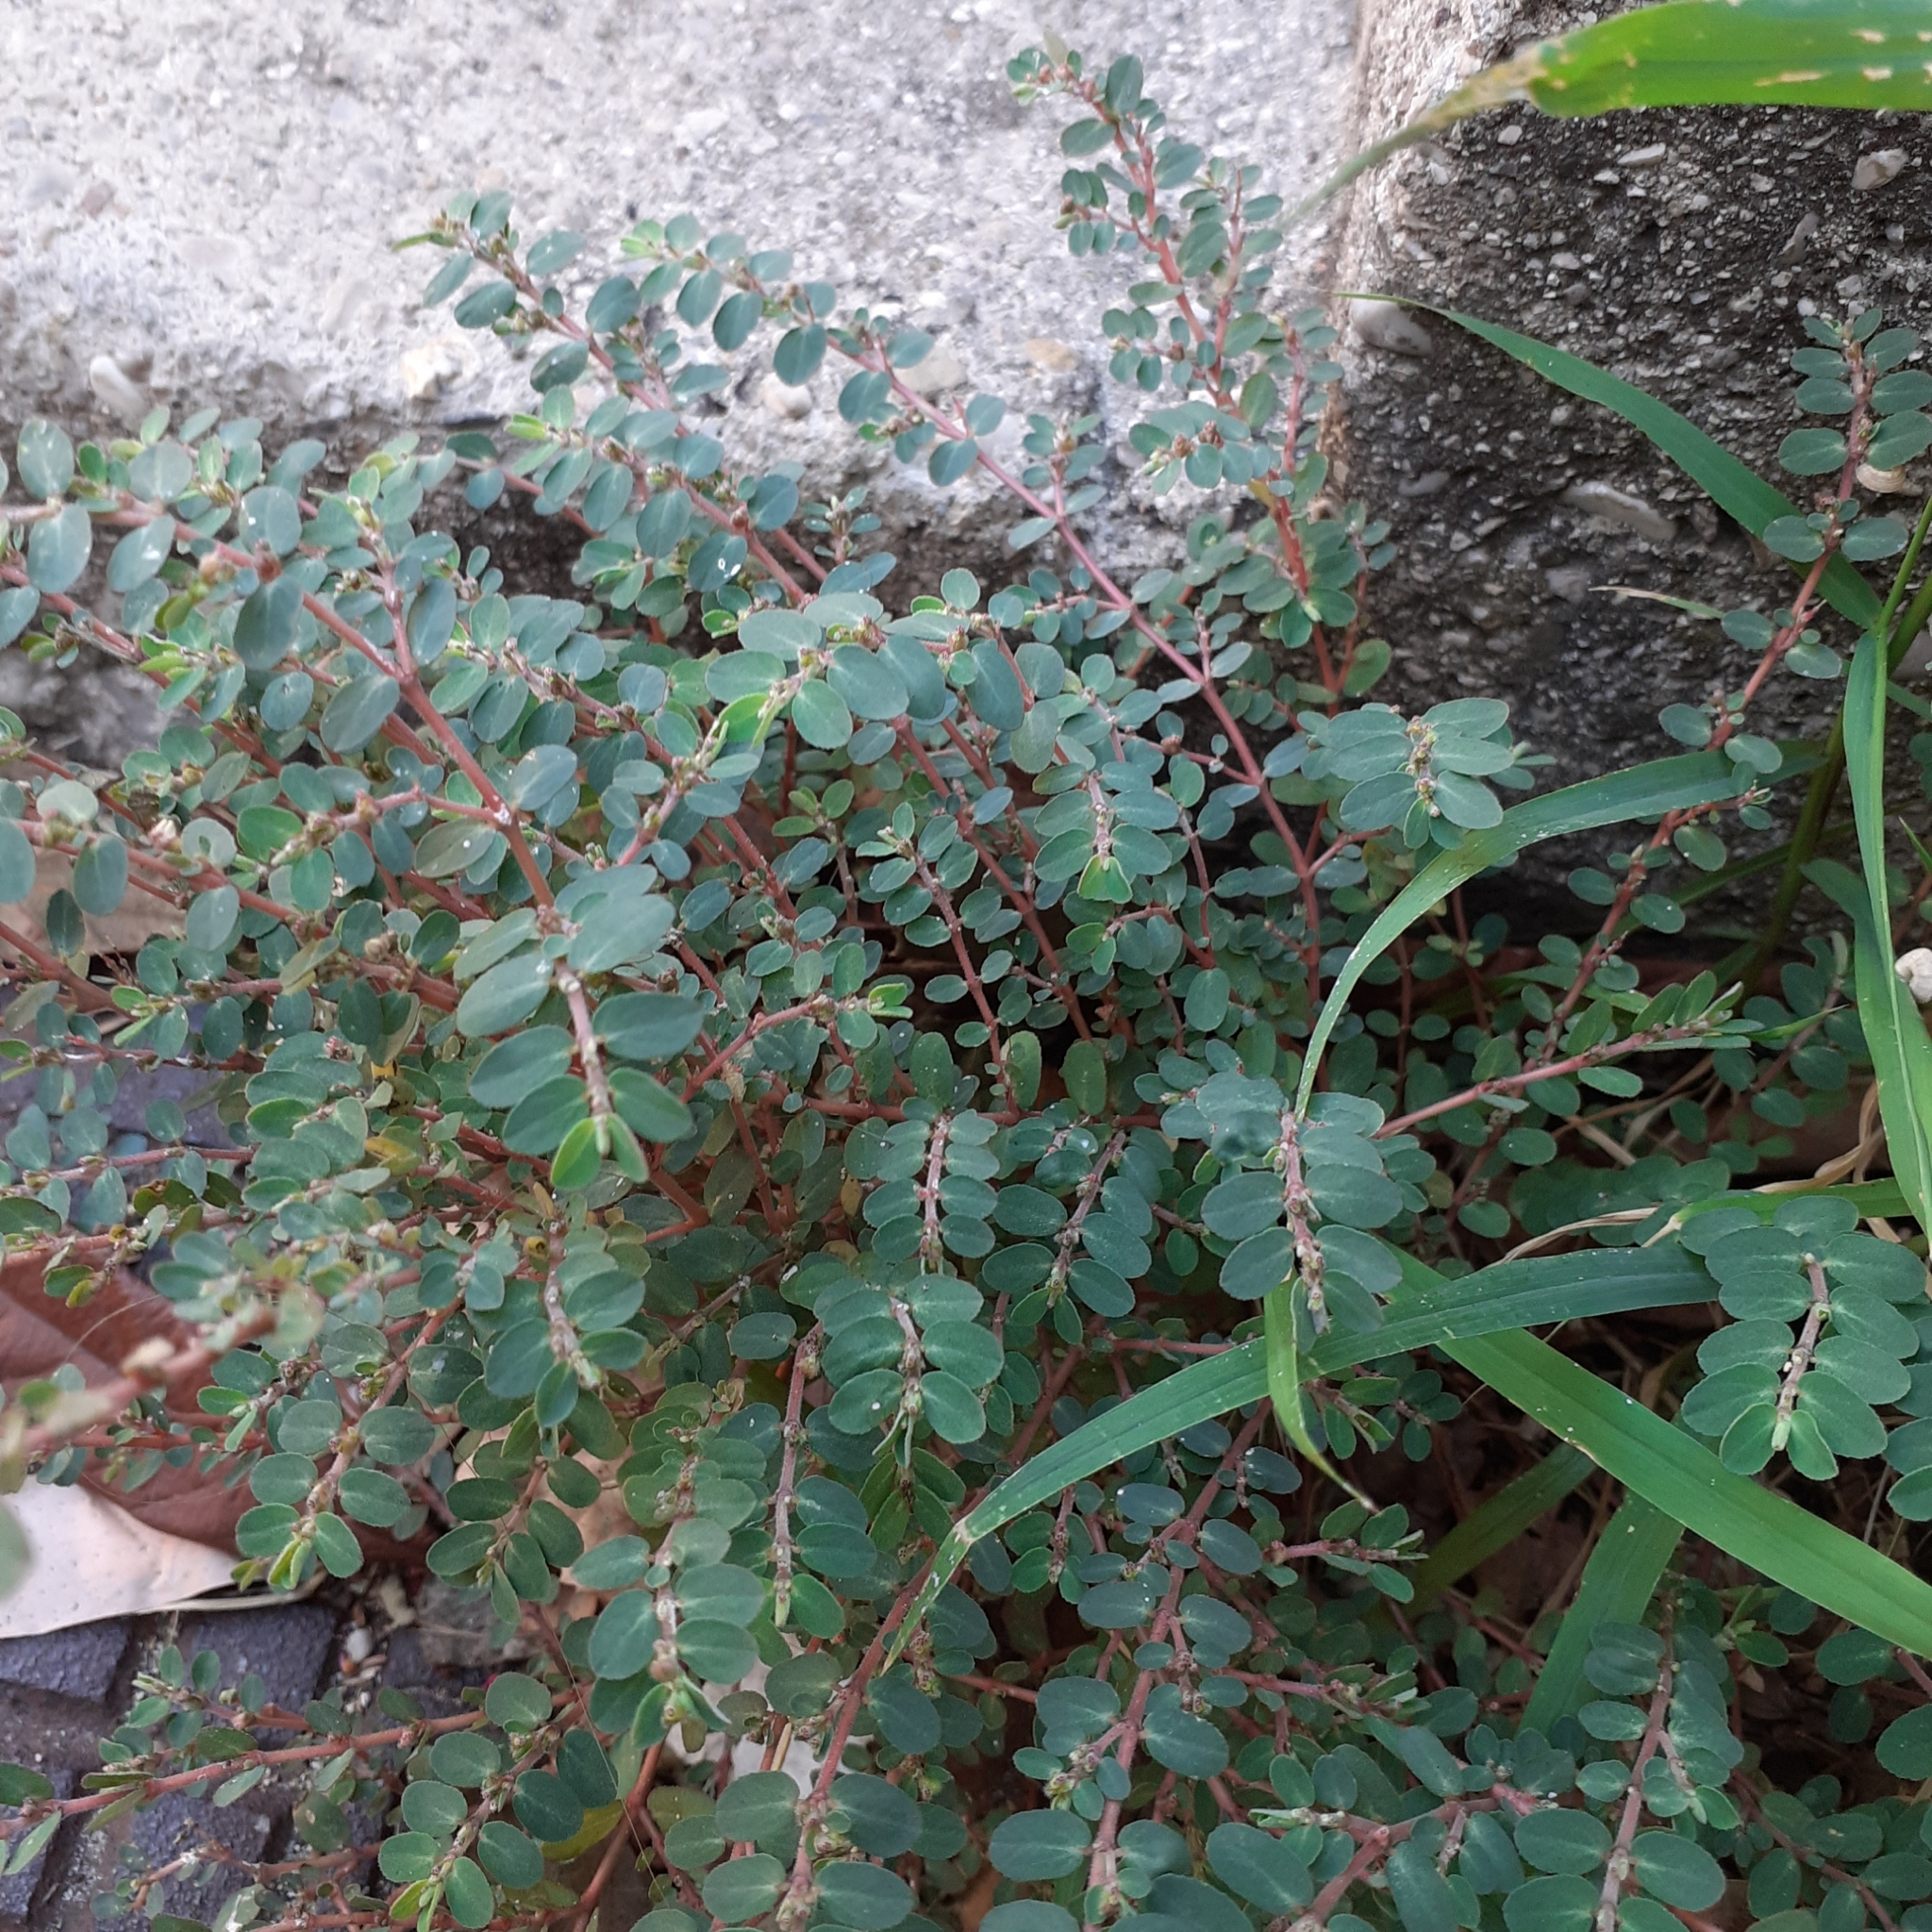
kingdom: Plantae
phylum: Tracheophyta
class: Magnoliopsida
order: Malpighiales
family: Euphorbiaceae
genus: Euphorbia
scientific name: Euphorbia prostrata
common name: Prostrate sandmat
